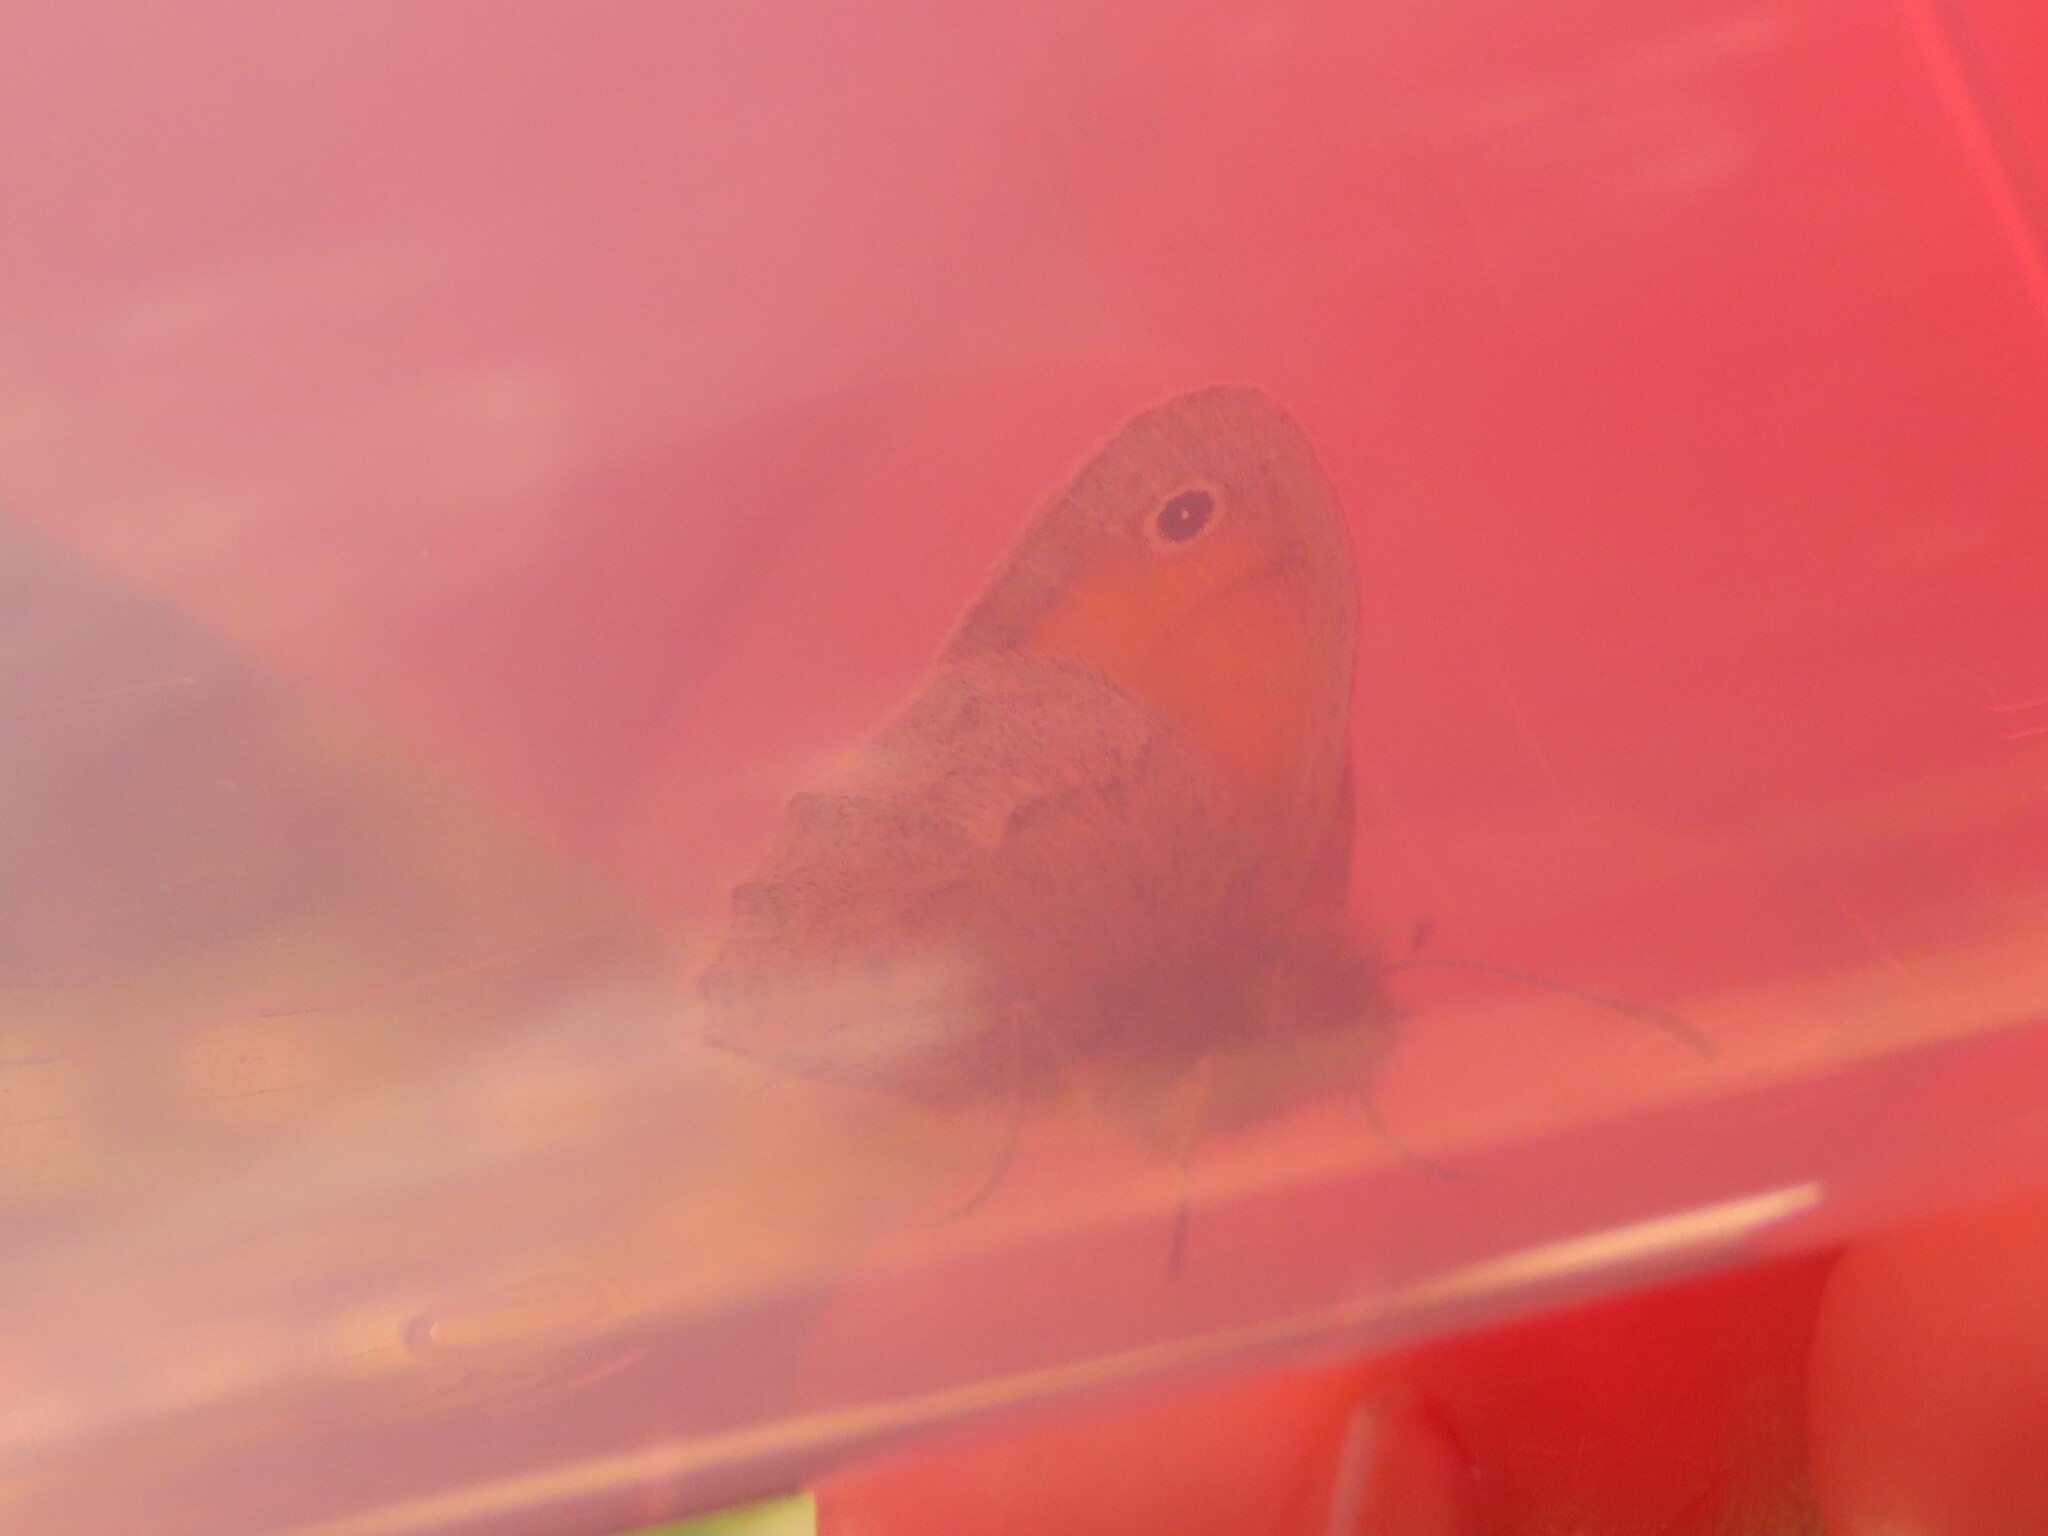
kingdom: Animalia
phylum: Arthropoda
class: Insecta
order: Lepidoptera
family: Nymphalidae
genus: Coenonympha
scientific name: Coenonympha pamphilus
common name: Small heath
